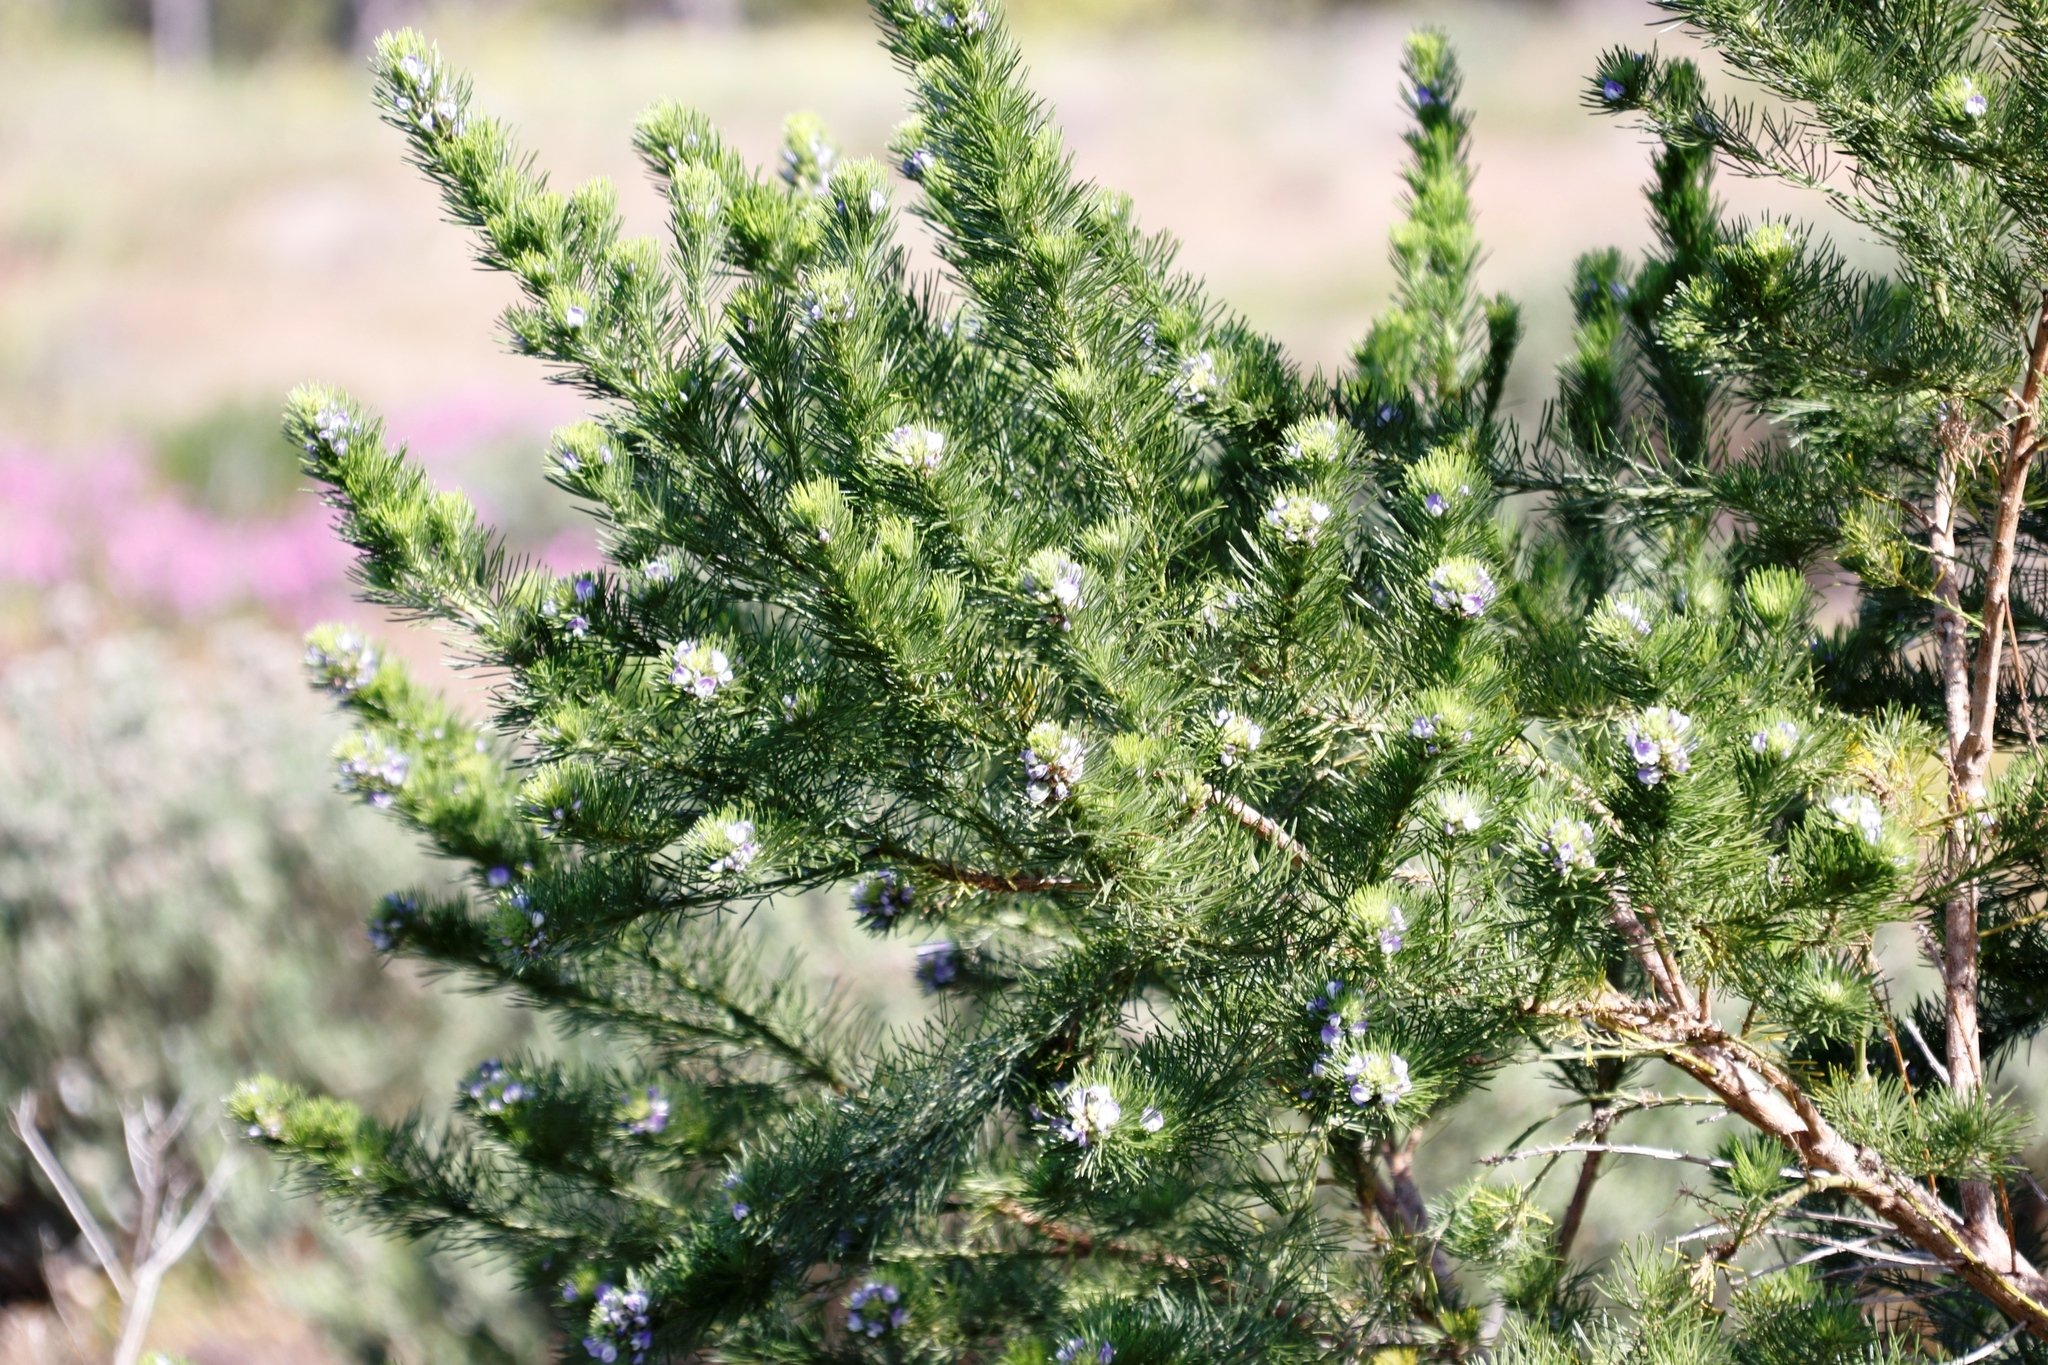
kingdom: Plantae
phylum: Tracheophyta
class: Magnoliopsida
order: Fabales
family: Fabaceae
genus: Psoralea
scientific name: Psoralea pinnata
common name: African scurfpea
